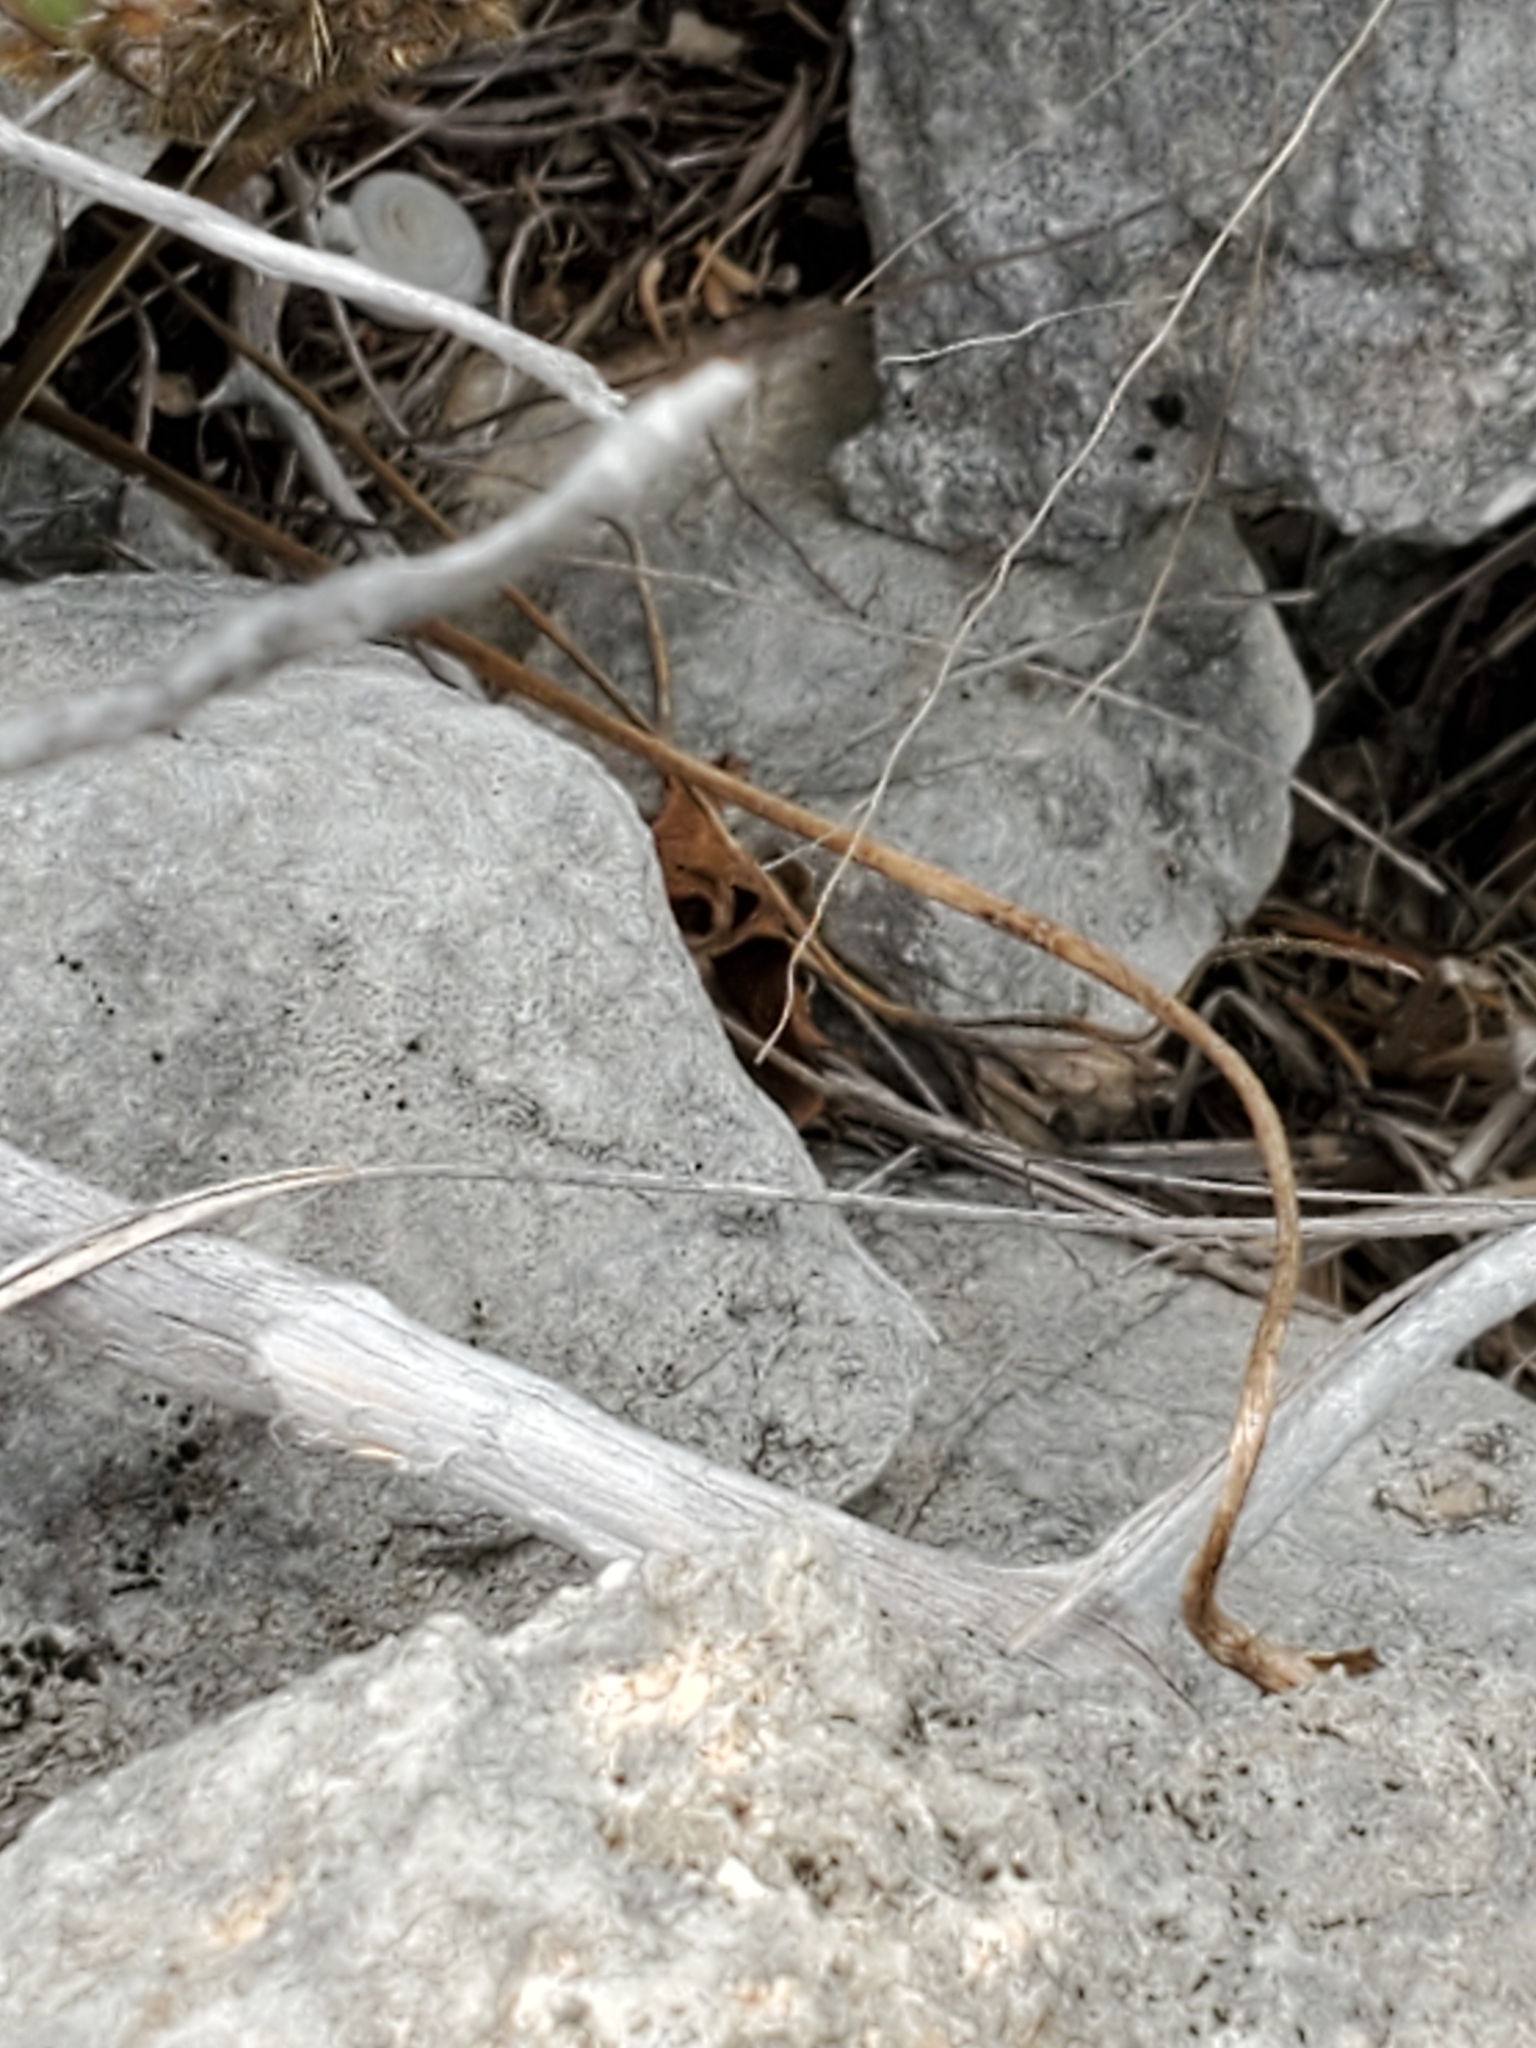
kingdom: Plantae
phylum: Tracheophyta
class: Magnoliopsida
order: Ranunculales
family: Ranunculaceae
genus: Anemone
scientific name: Anemone edwardsiana
